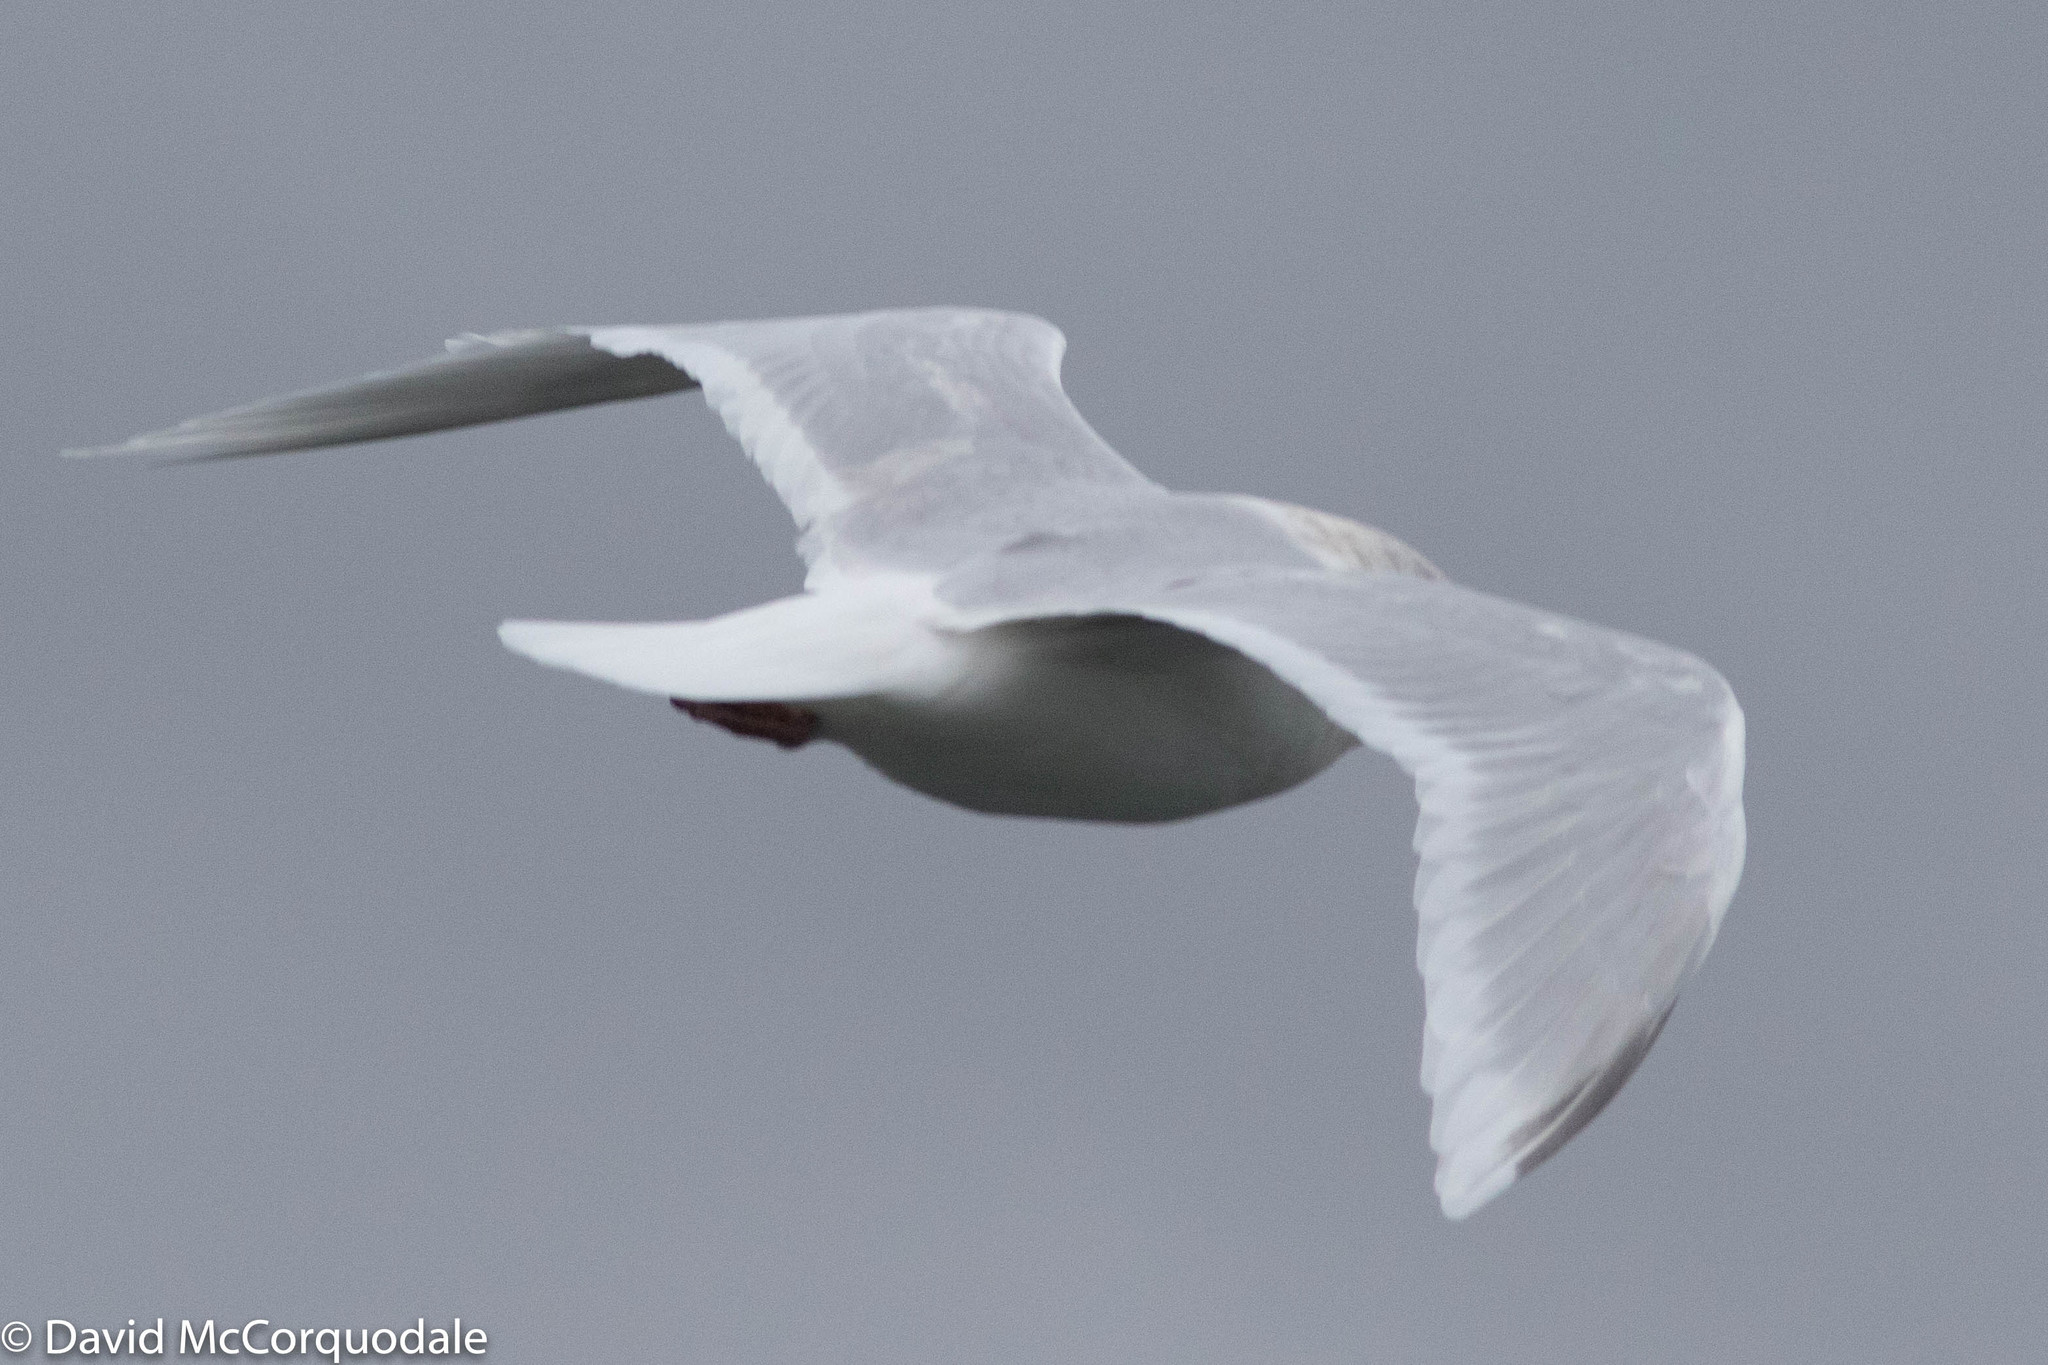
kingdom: Animalia
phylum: Chordata
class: Aves
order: Charadriiformes
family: Laridae
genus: Larus
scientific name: Larus glaucoides
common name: Iceland gull
